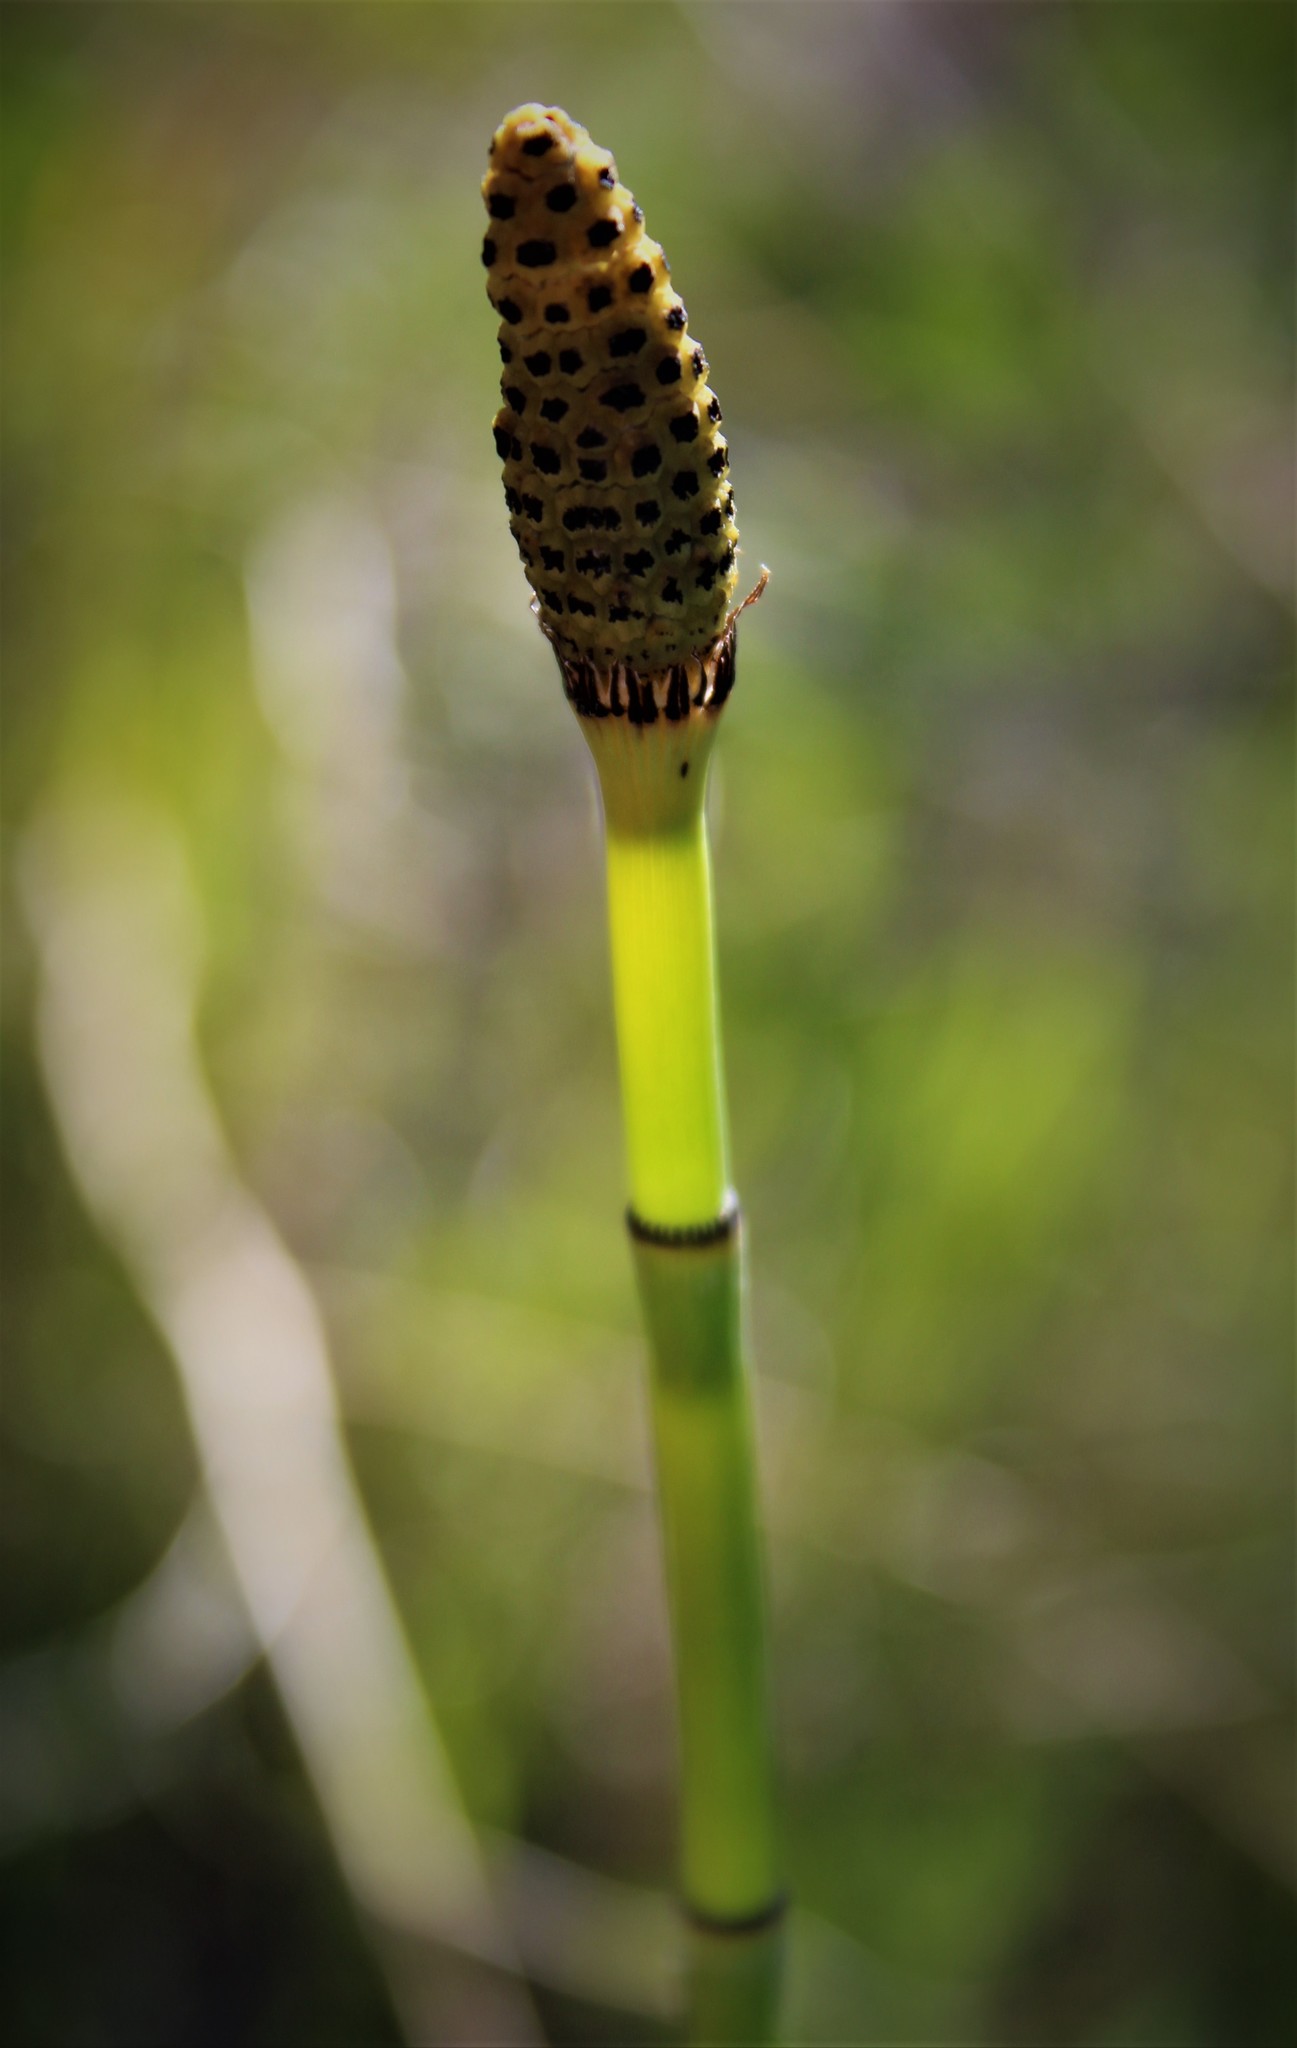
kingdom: Plantae
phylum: Tracheophyta
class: Polypodiopsida
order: Equisetales
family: Equisetaceae
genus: Equisetum
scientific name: Equisetum laevigatum
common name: Smooth scouring-rush
